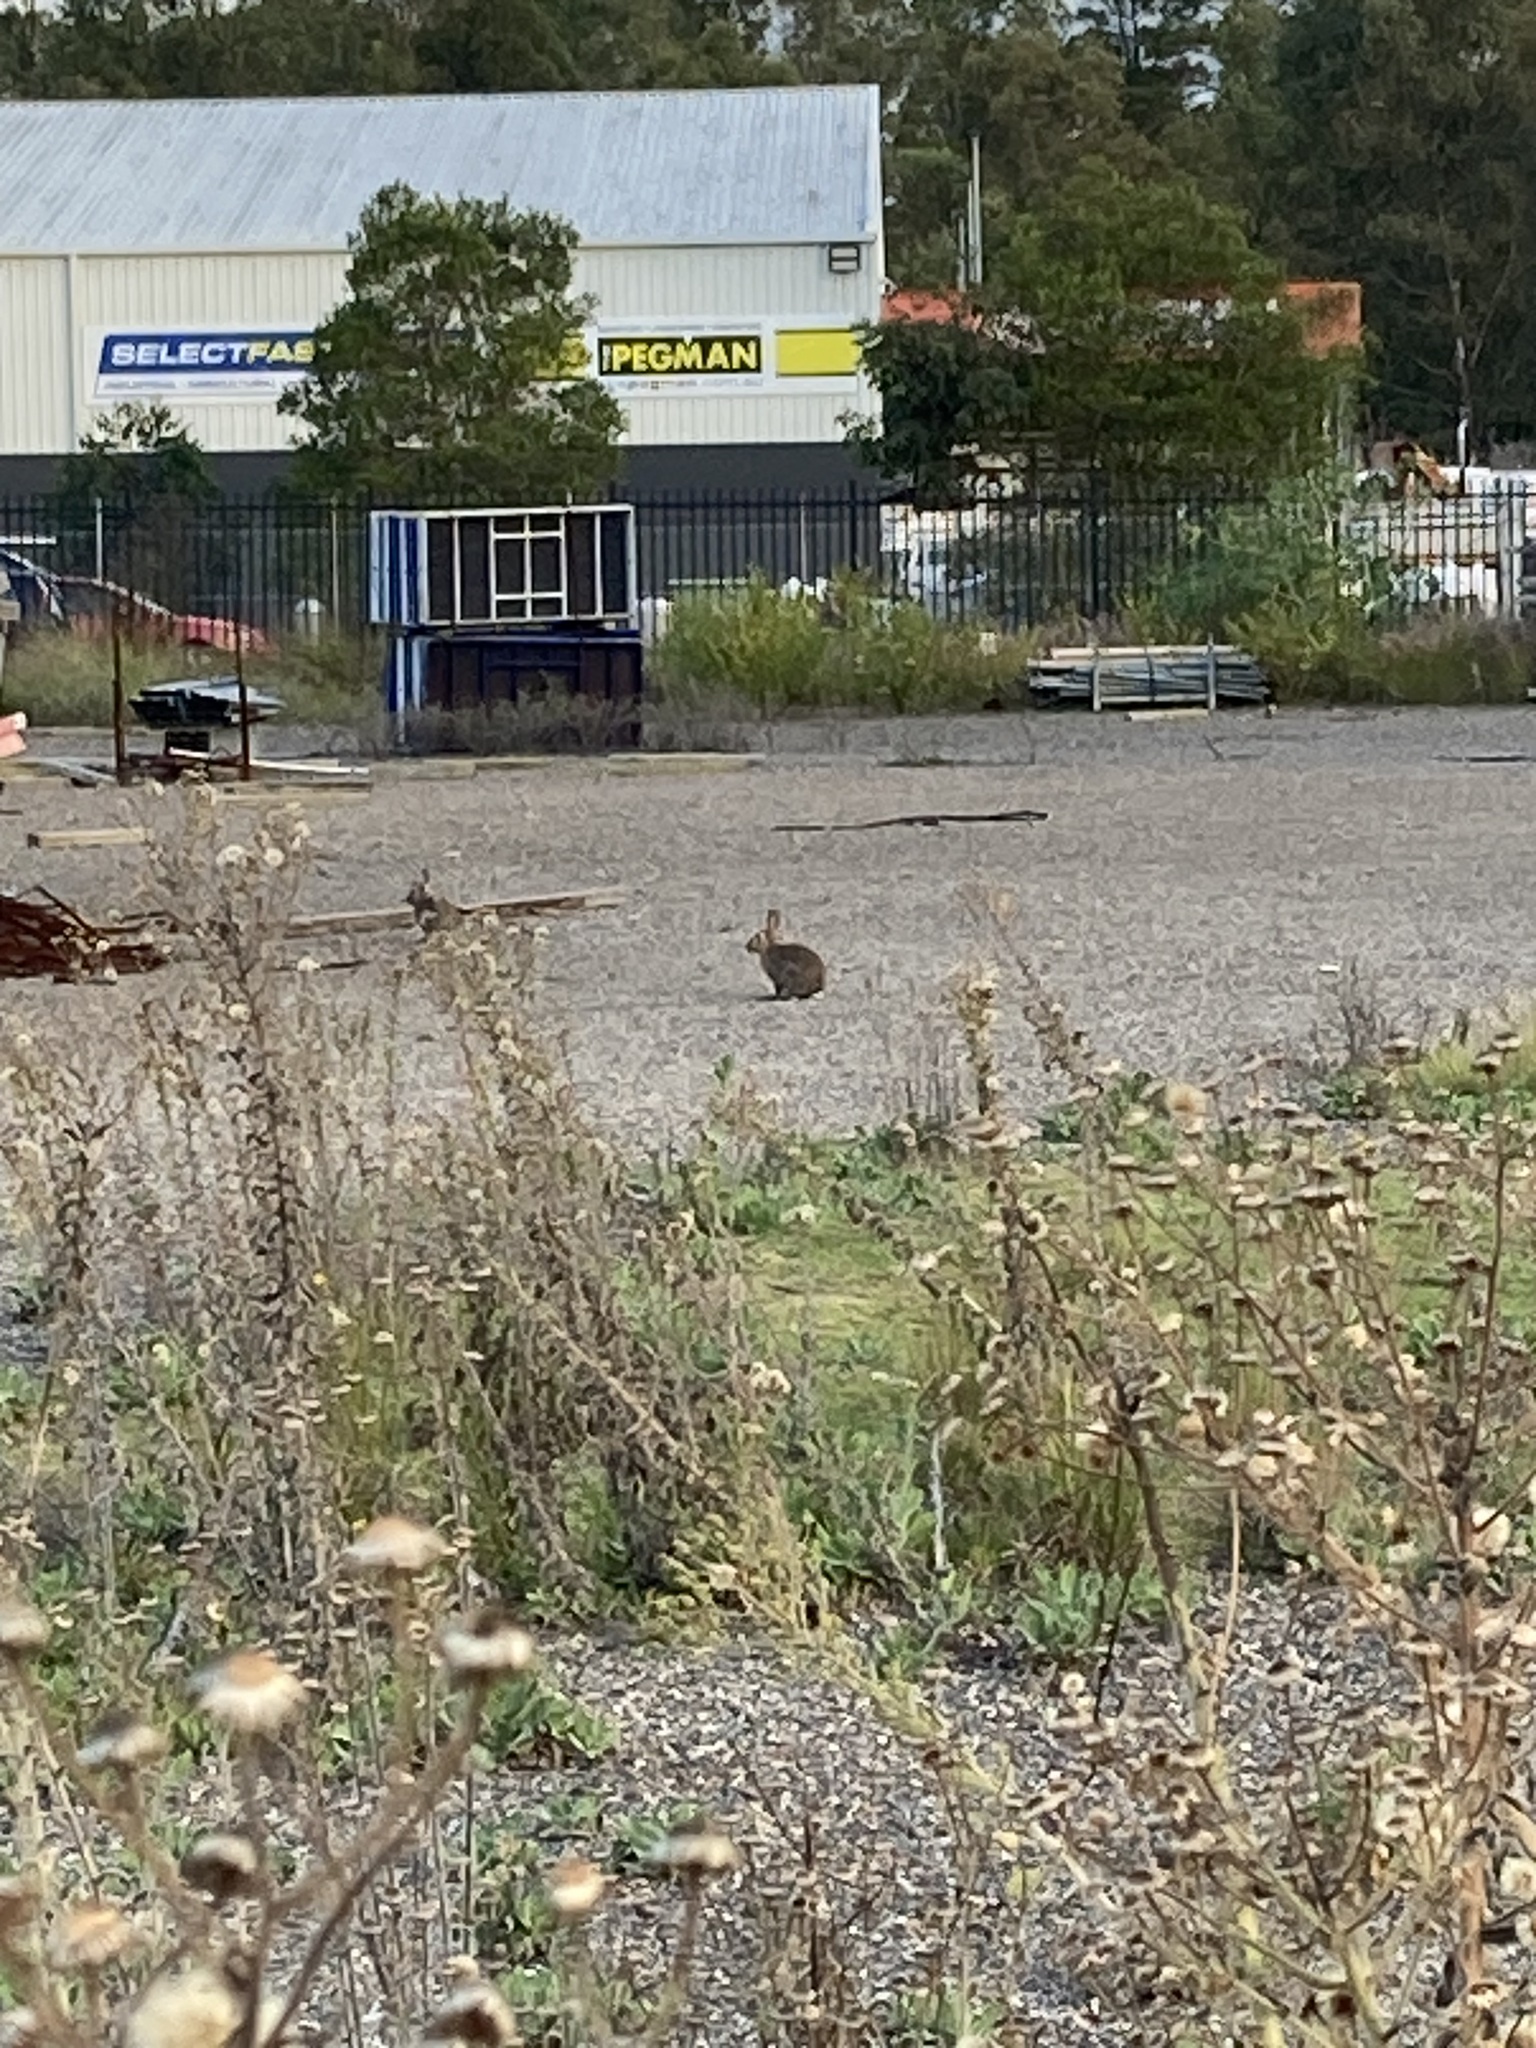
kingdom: Animalia
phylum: Chordata
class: Mammalia
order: Lagomorpha
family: Leporidae
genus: Oryctolagus
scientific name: Oryctolagus cuniculus
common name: European rabbit
